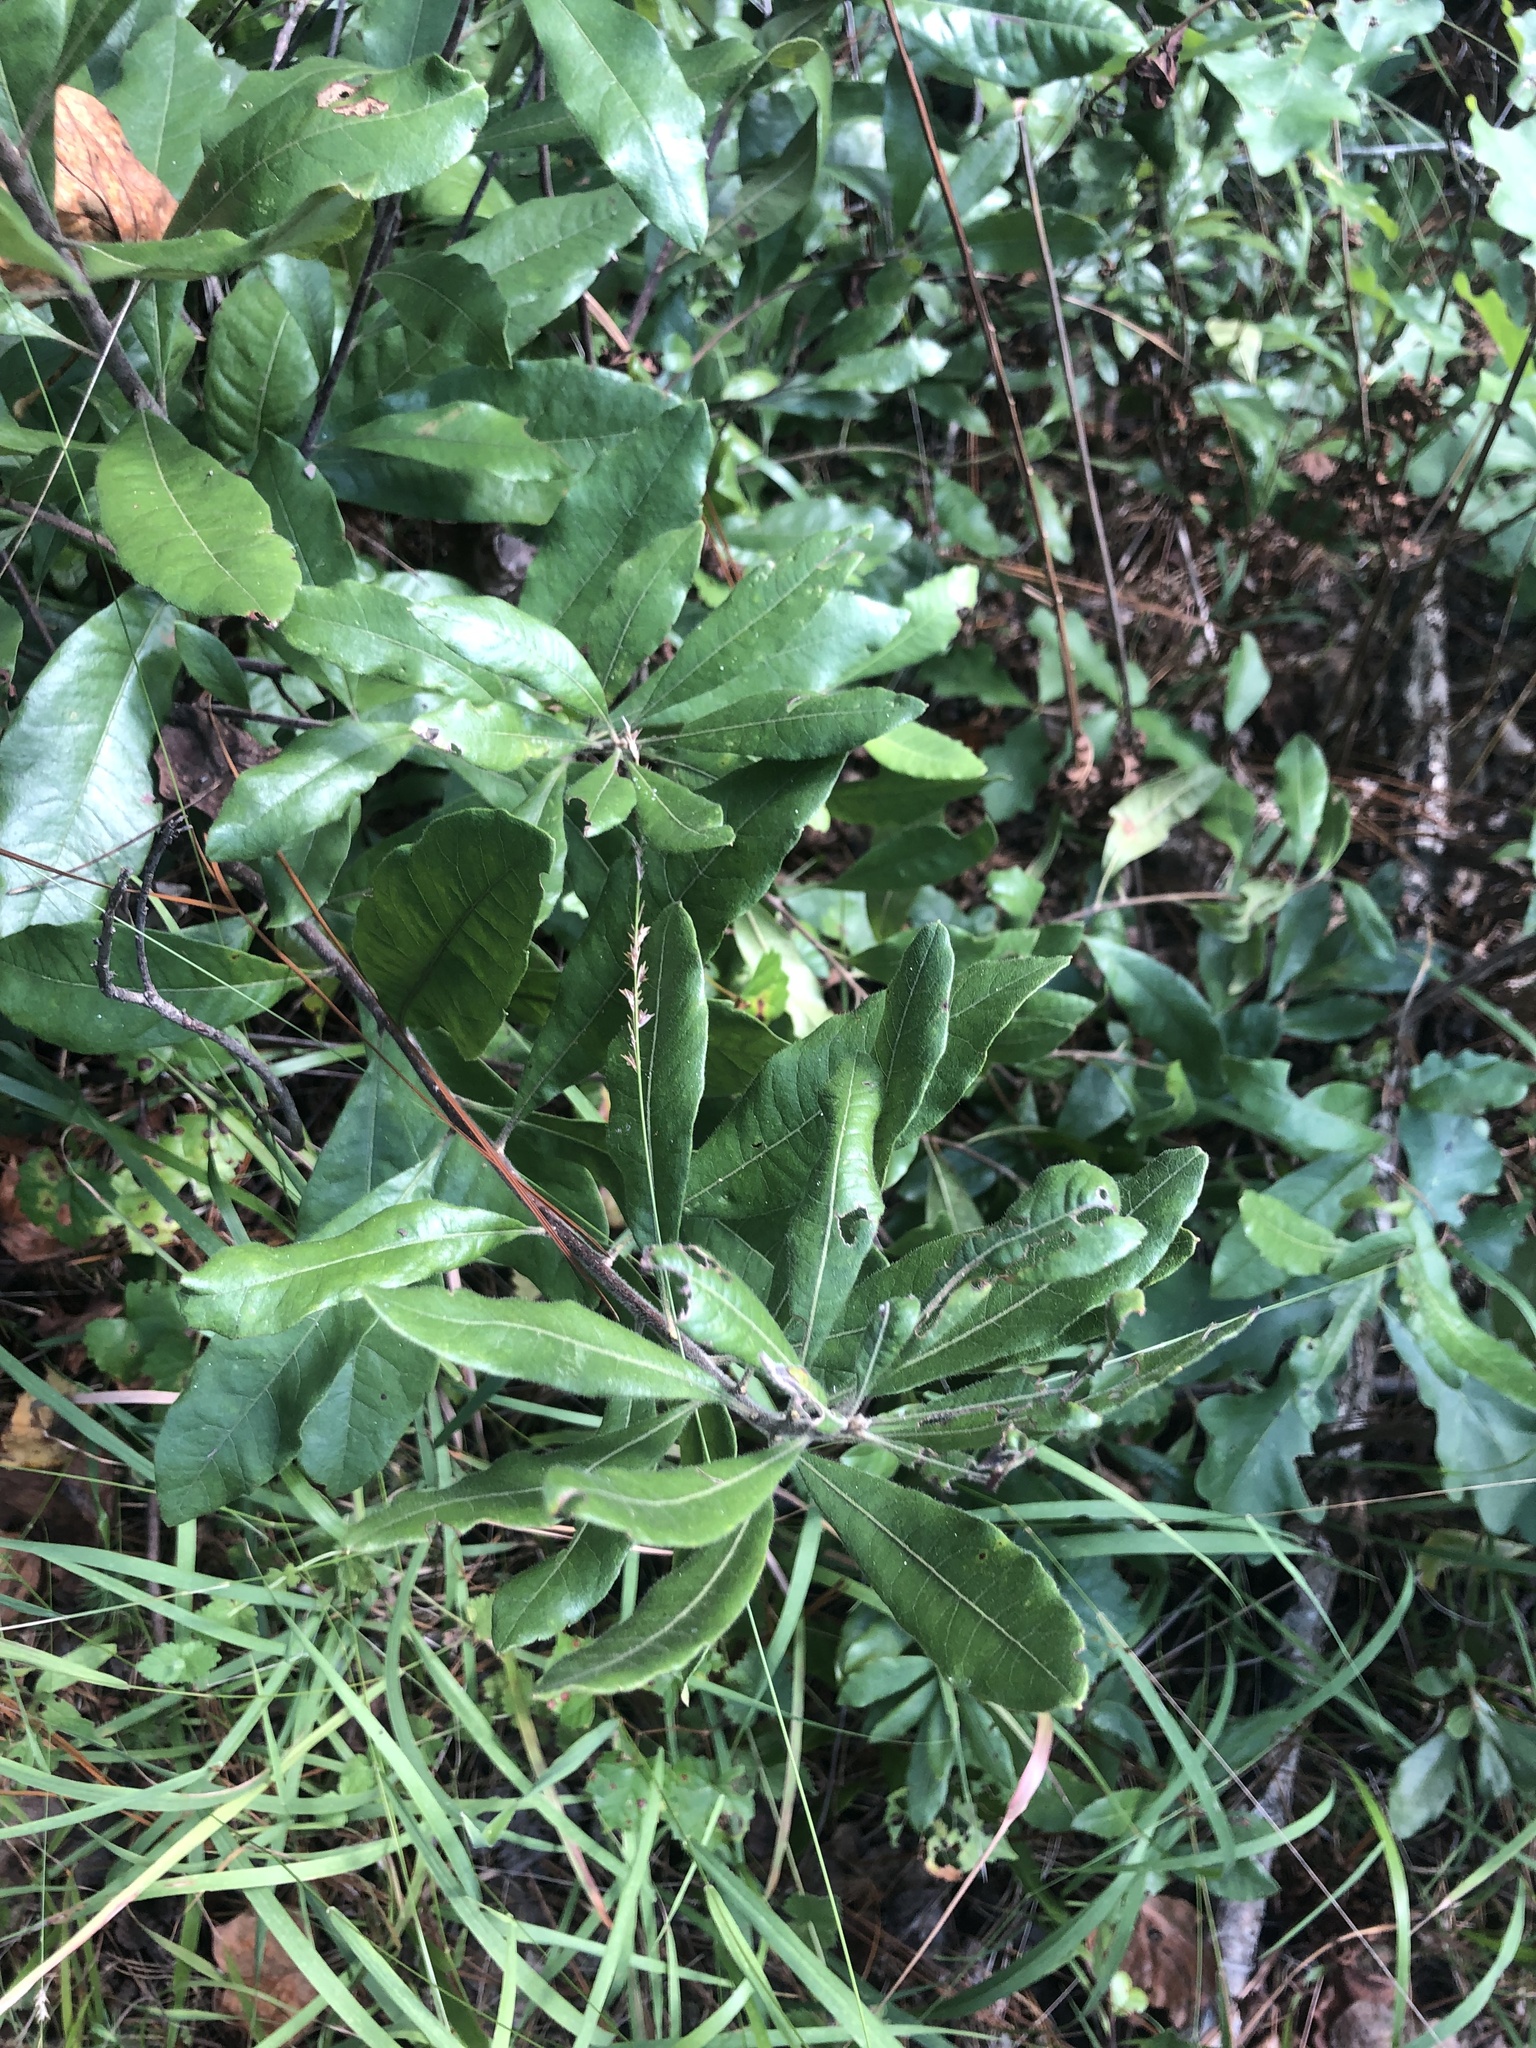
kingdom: Plantae
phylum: Tracheophyta
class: Magnoliopsida
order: Fagales
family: Myricaceae
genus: Morella
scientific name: Morella caroliniensis
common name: Evergreen bayberry
